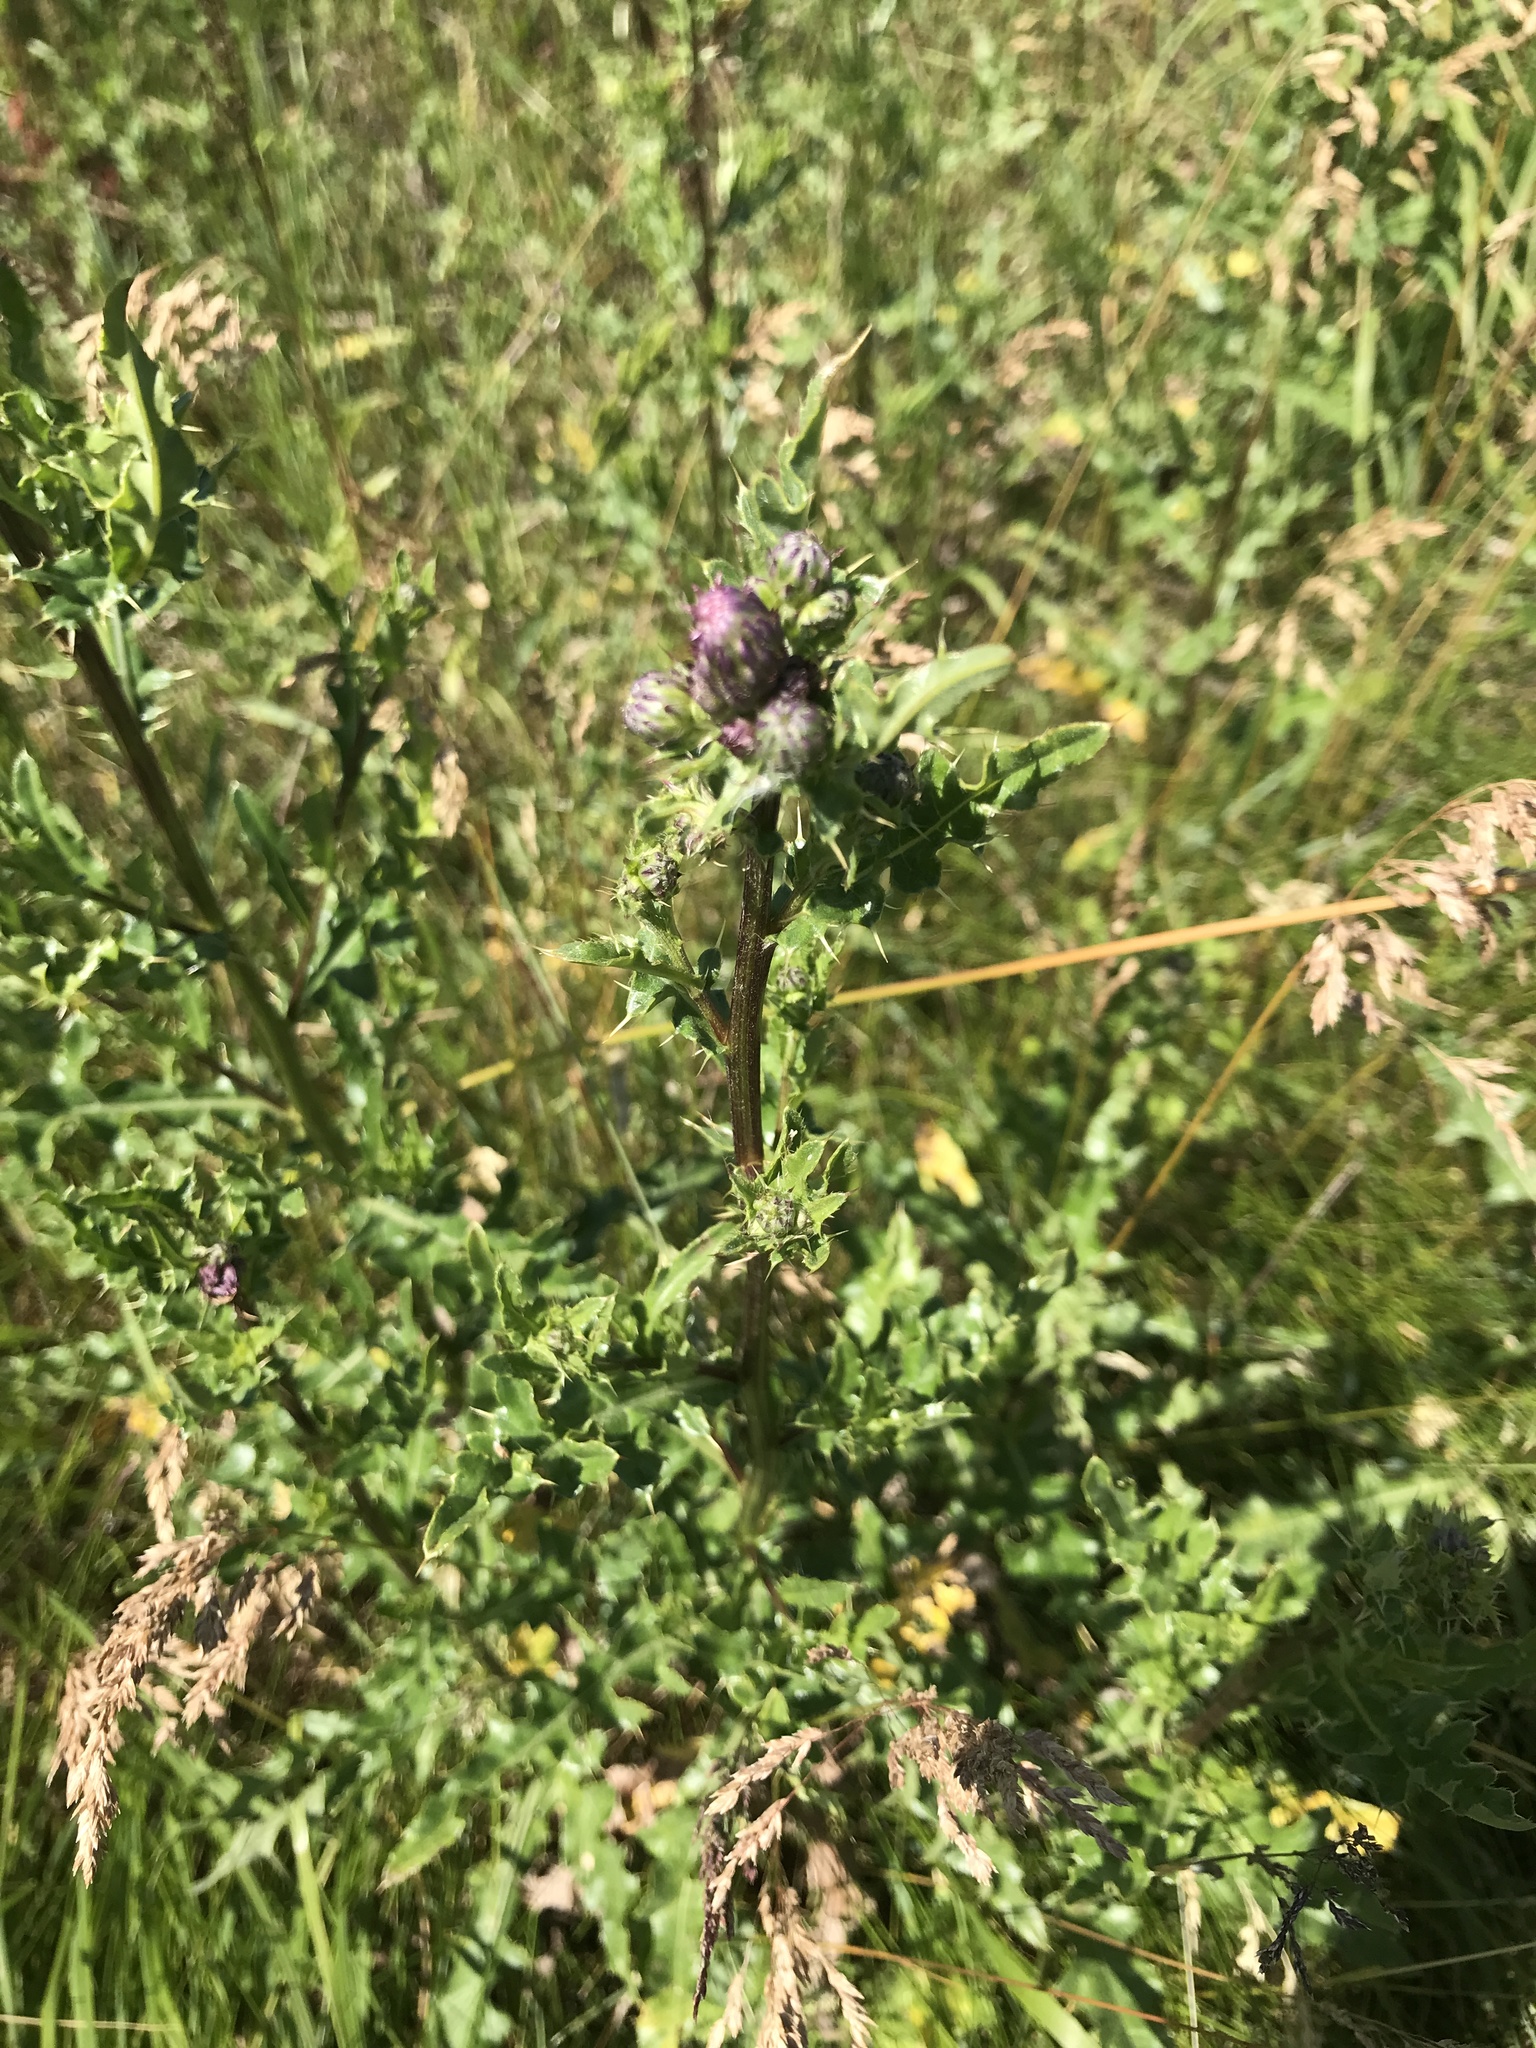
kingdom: Plantae
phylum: Tracheophyta
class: Magnoliopsida
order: Asterales
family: Asteraceae
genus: Cirsium
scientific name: Cirsium arvense
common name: Creeping thistle
